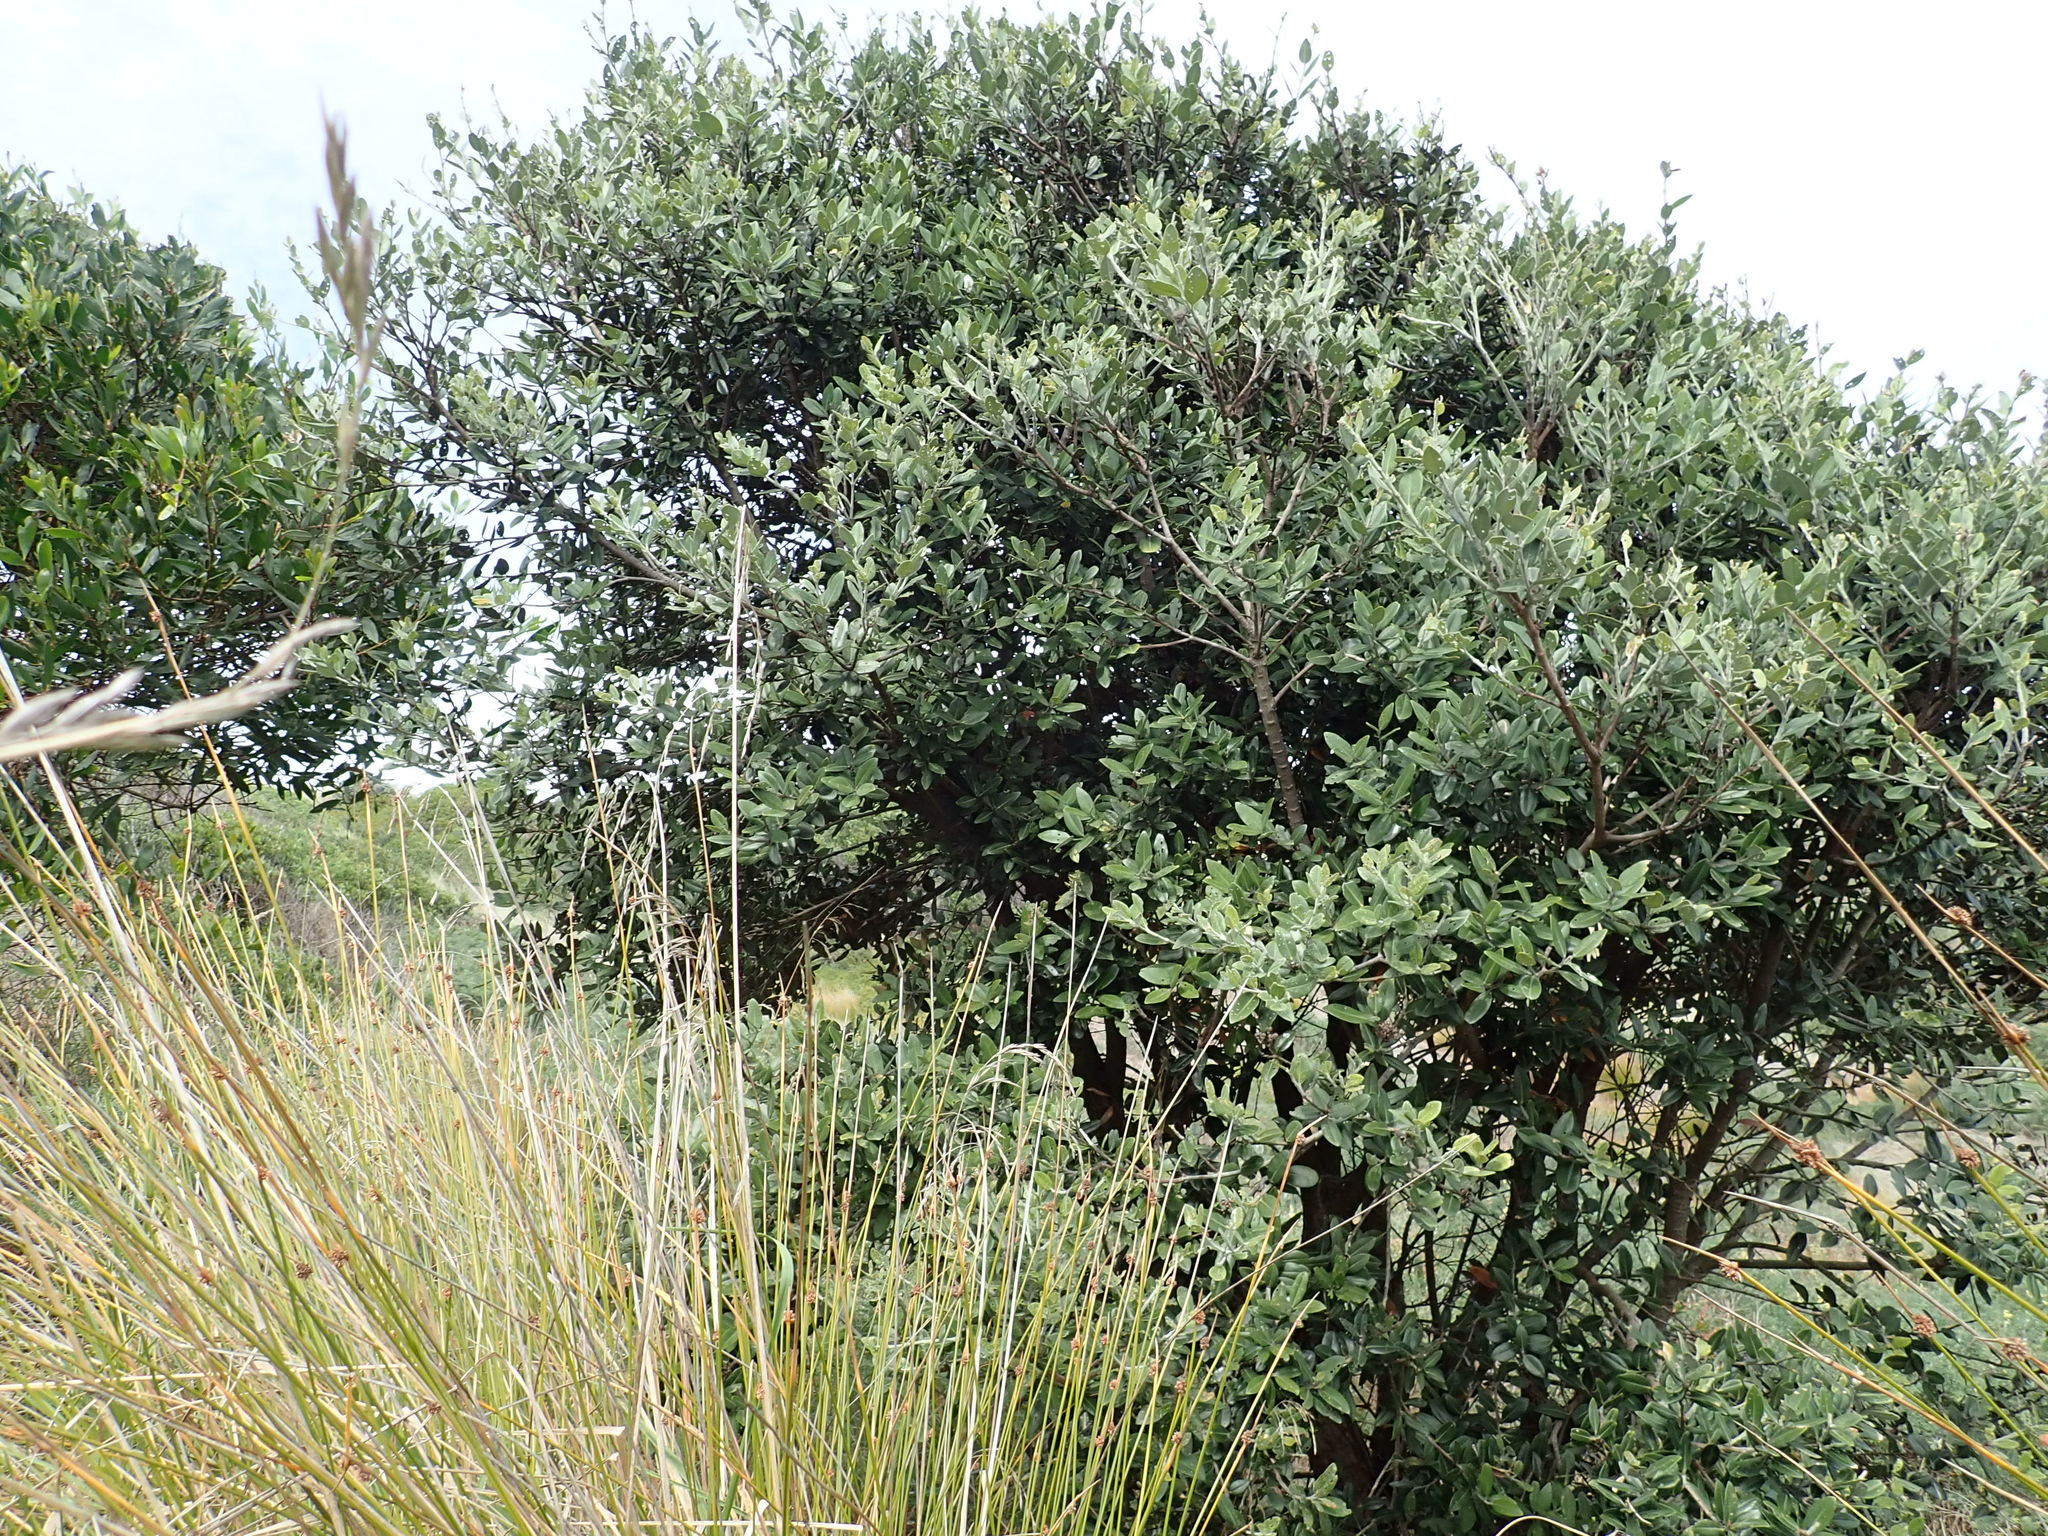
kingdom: Plantae
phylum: Tracheophyta
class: Magnoliopsida
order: Myrtales
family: Myrtaceae
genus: Metrosideros
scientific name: Metrosideros excelsa
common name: New zealand christmastree
